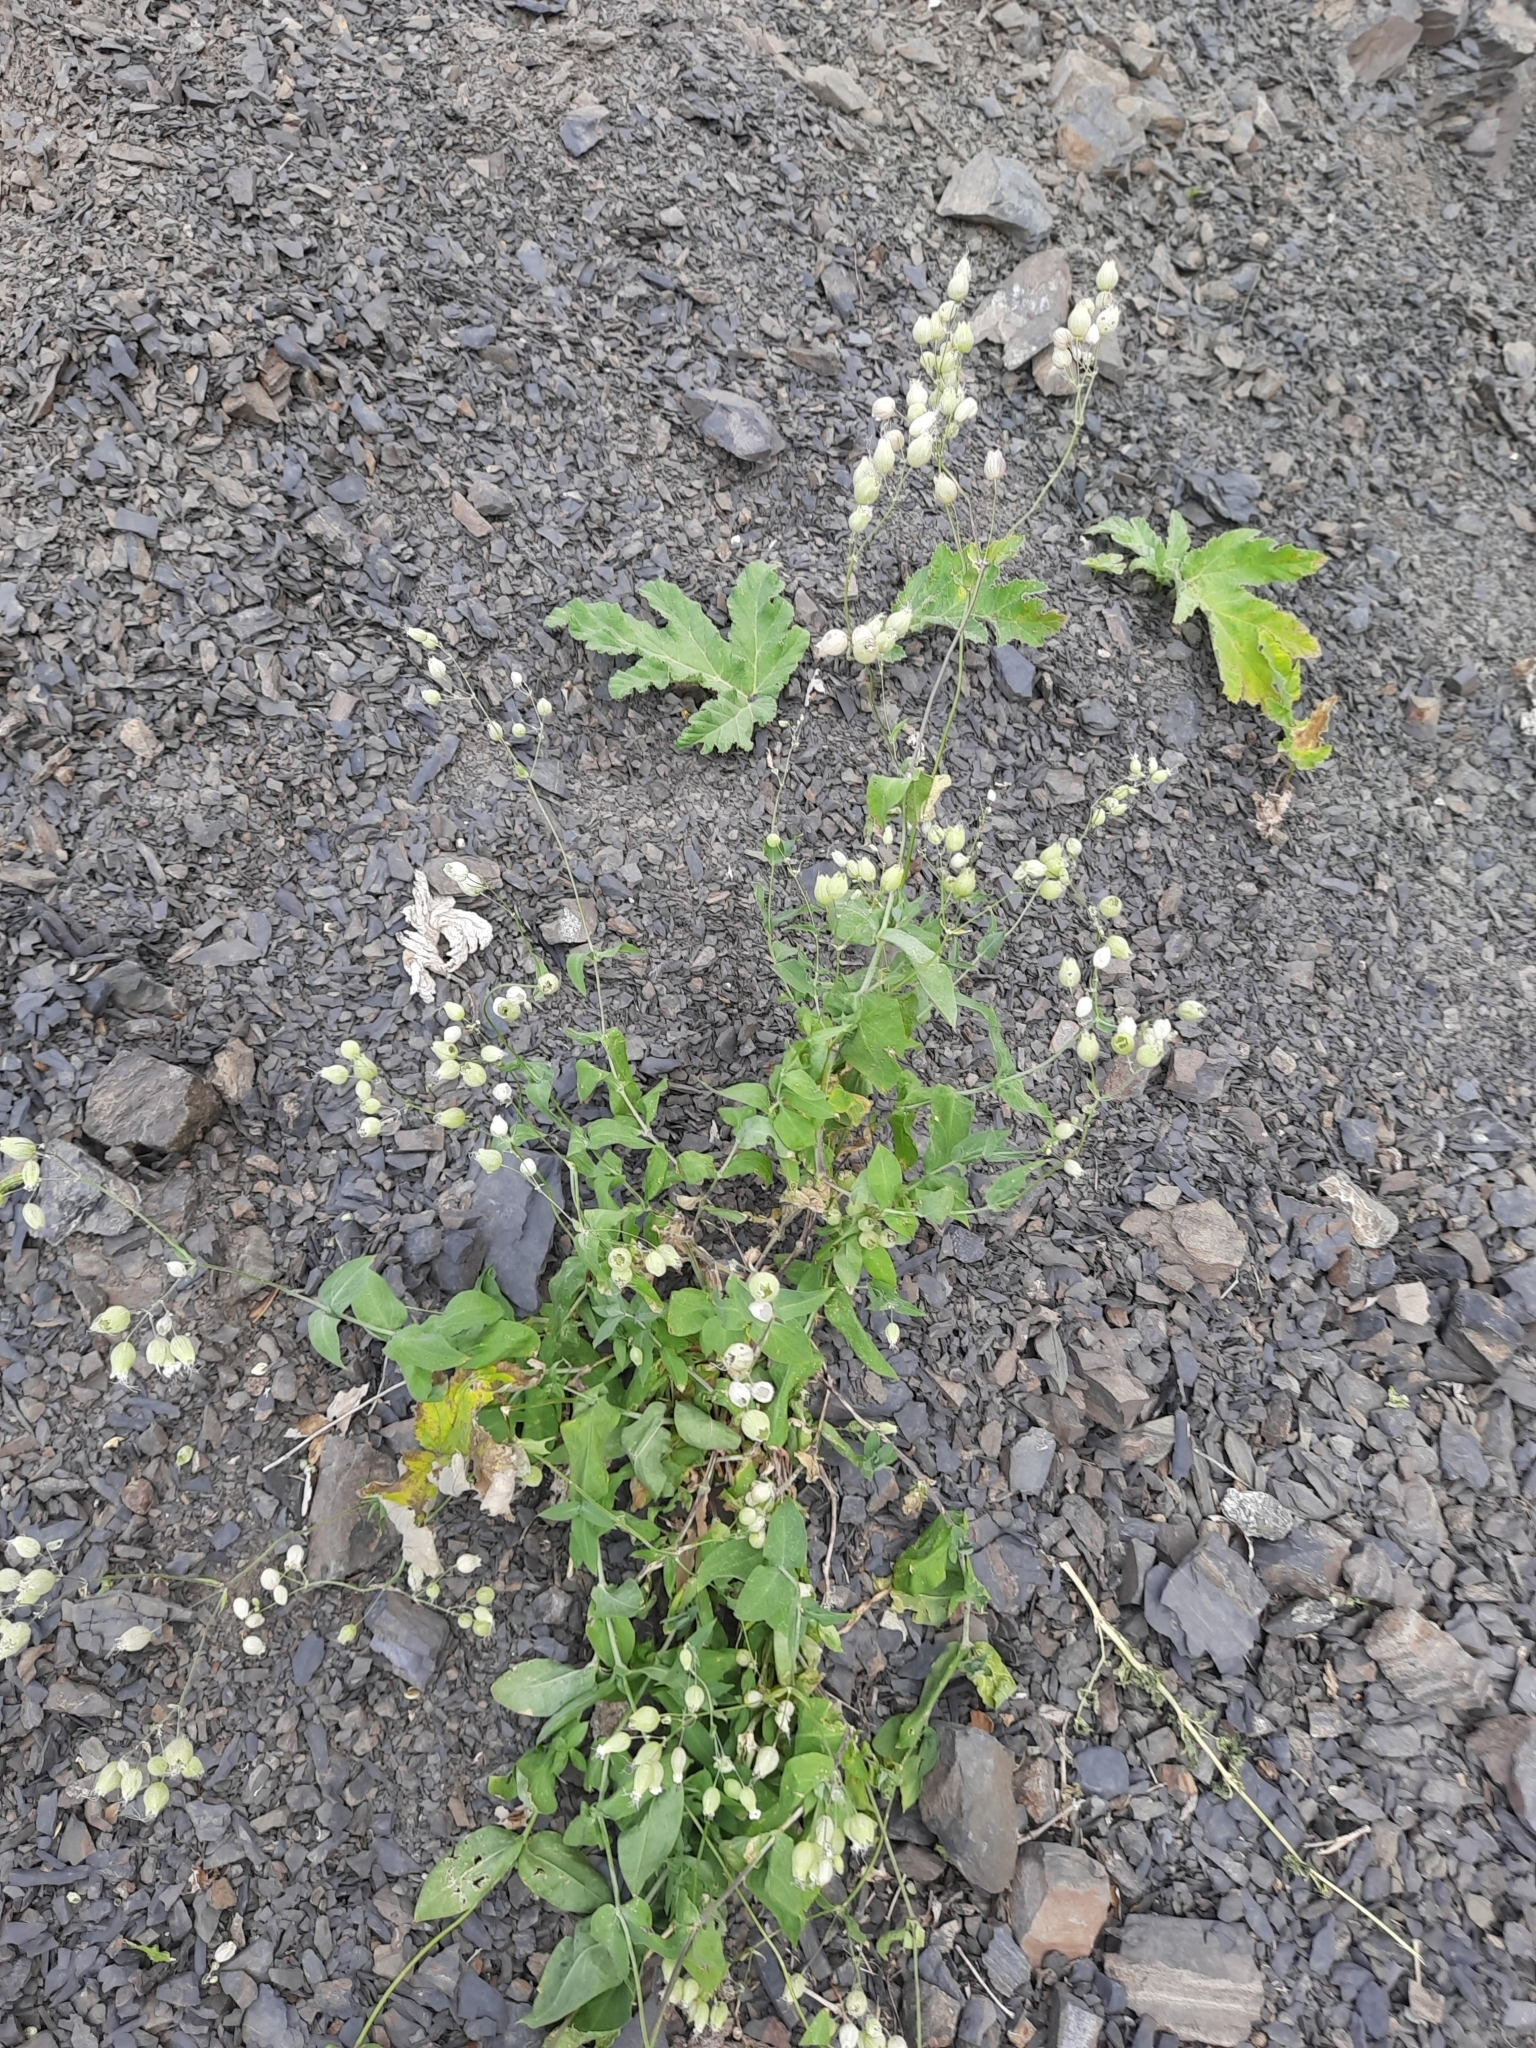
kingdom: Plantae
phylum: Tracheophyta
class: Magnoliopsida
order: Caryophyllales
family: Caryophyllaceae
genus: Silene
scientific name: Silene vulgaris
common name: Bladder campion
